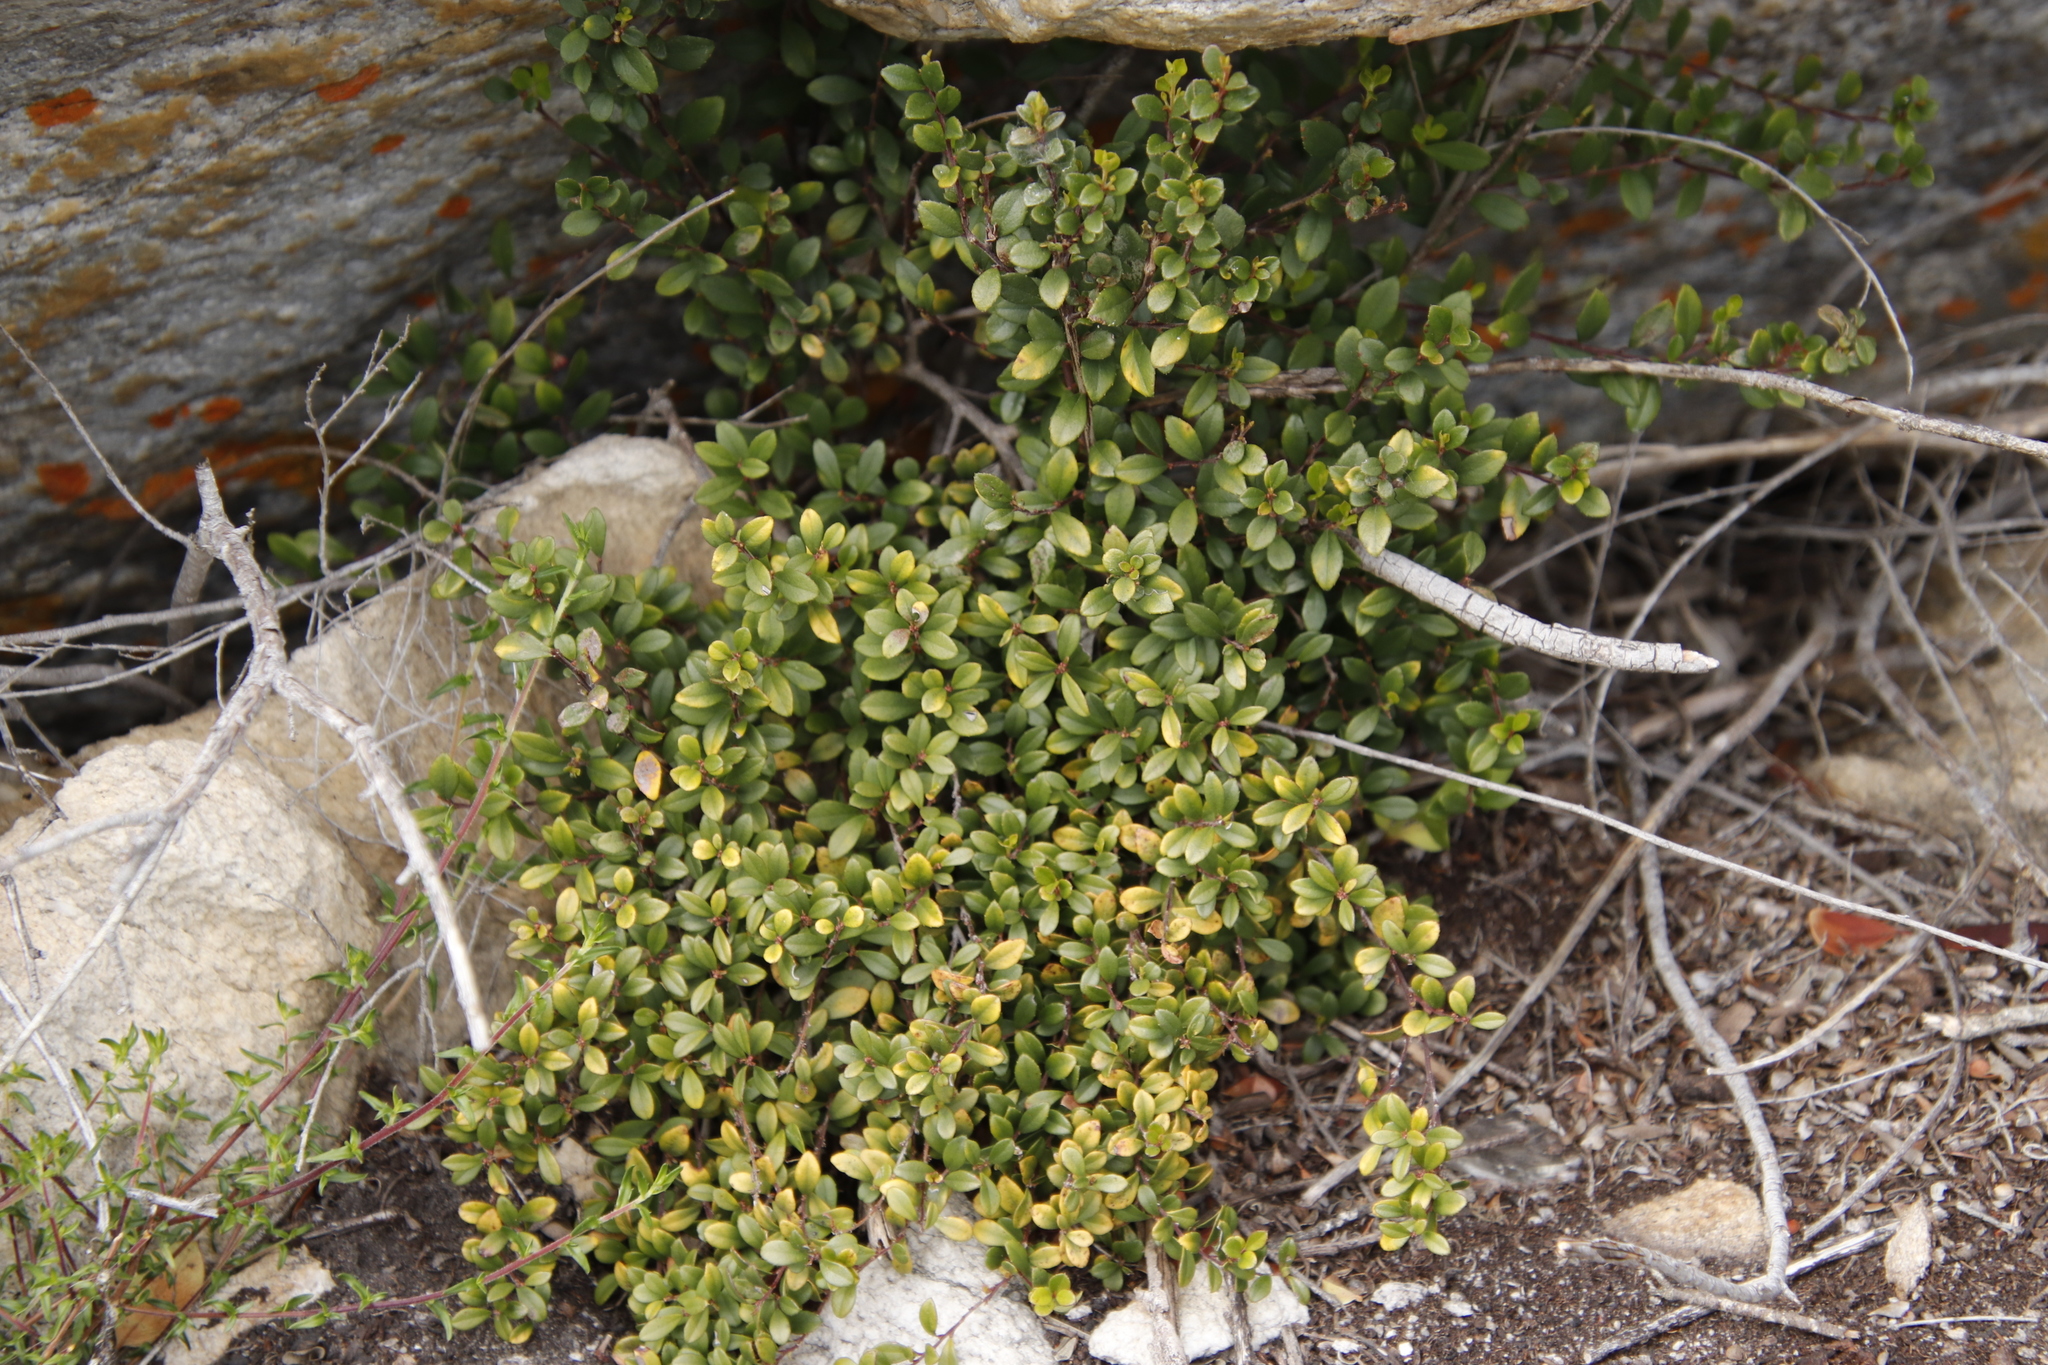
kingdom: Plantae
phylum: Tracheophyta
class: Magnoliopsida
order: Ericales
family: Primulaceae
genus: Myrsine
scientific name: Myrsine africana
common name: African-boxwood
